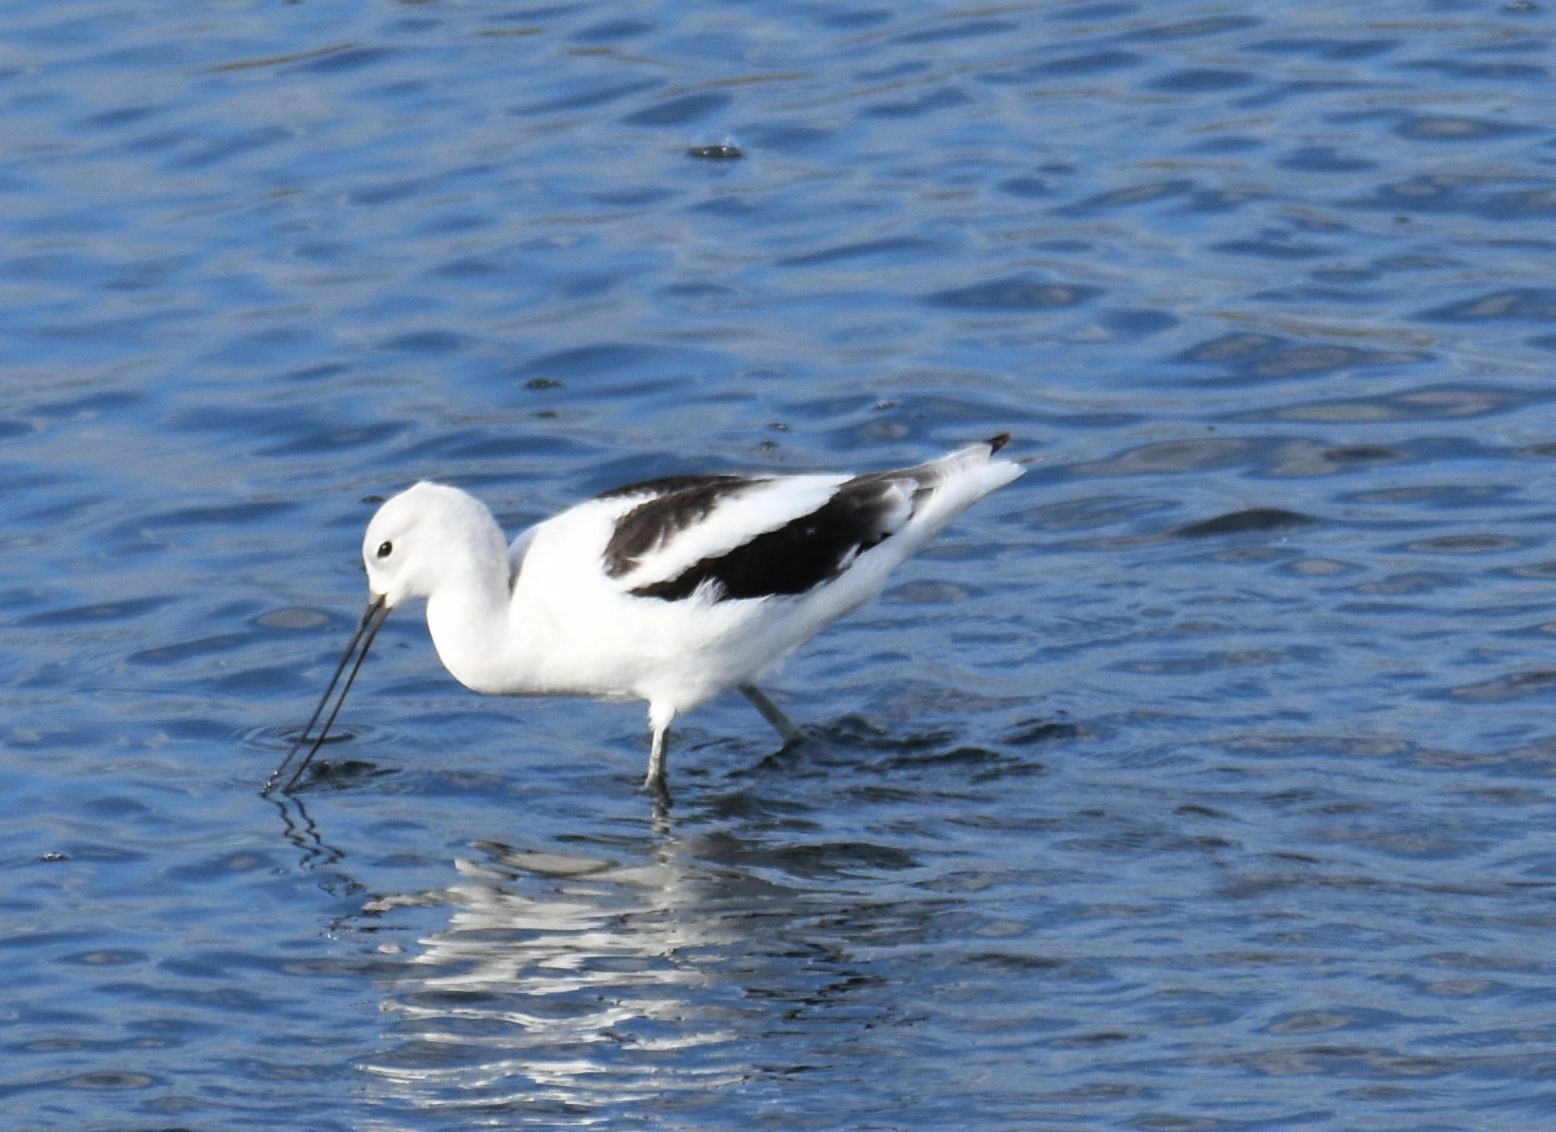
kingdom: Animalia
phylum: Chordata
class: Aves
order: Charadriiformes
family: Recurvirostridae
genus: Recurvirostra
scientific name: Recurvirostra americana
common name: American avocet
